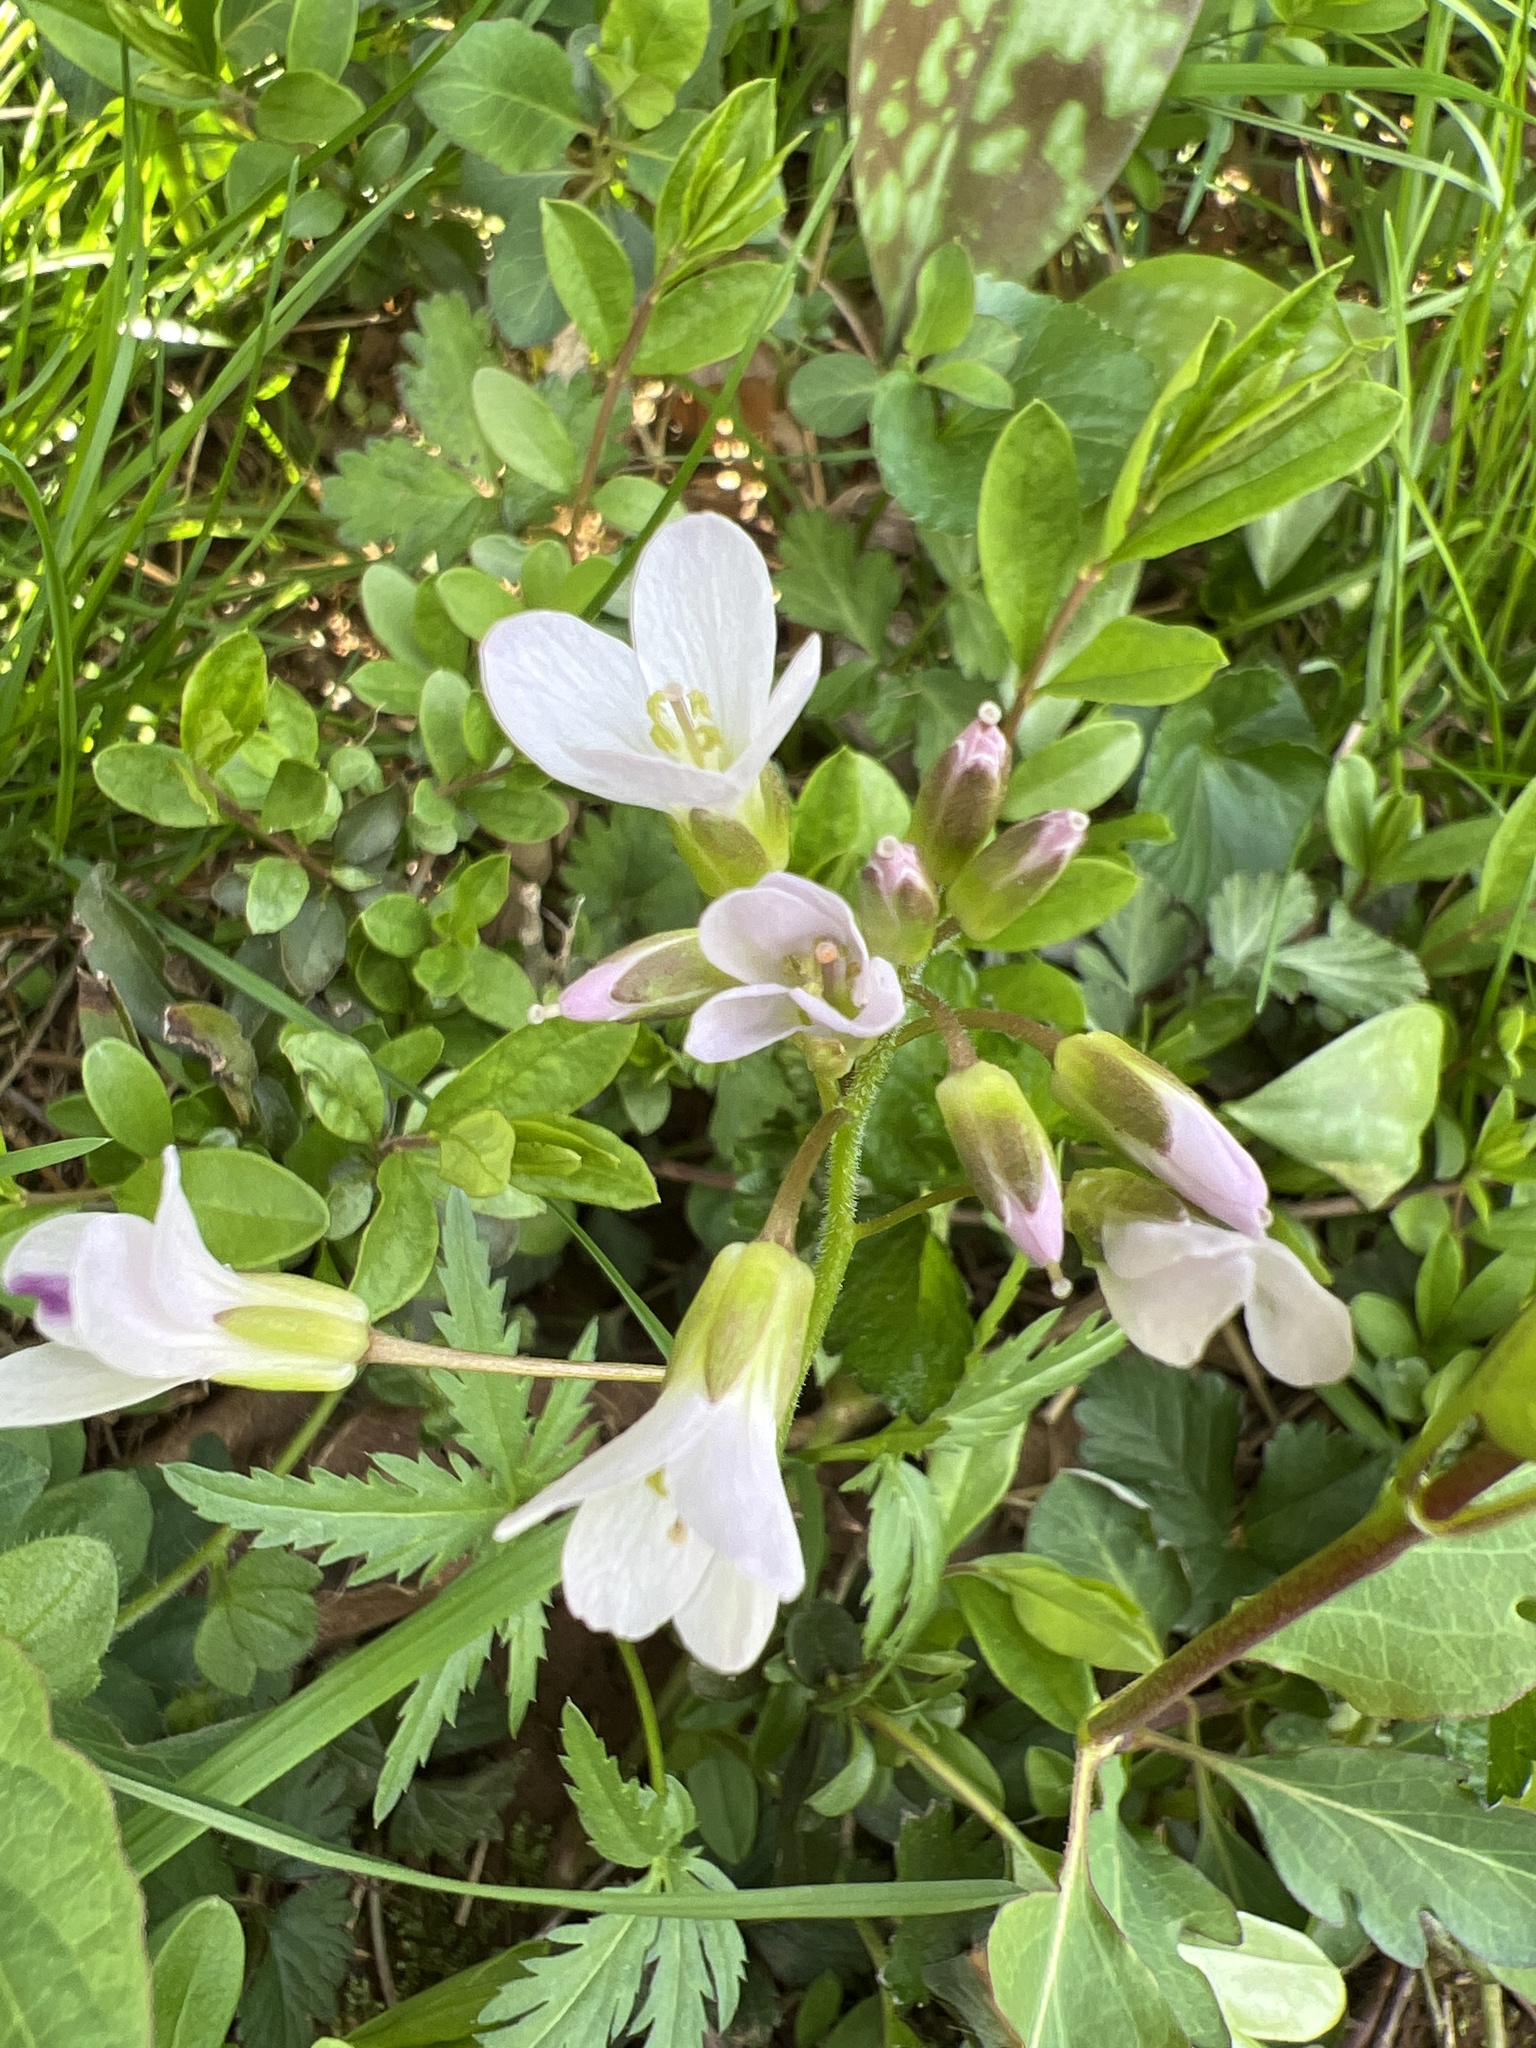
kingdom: Plantae
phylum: Tracheophyta
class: Magnoliopsida
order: Brassicales
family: Brassicaceae
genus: Cardamine
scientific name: Cardamine concatenata
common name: Cut-leaf toothcup
